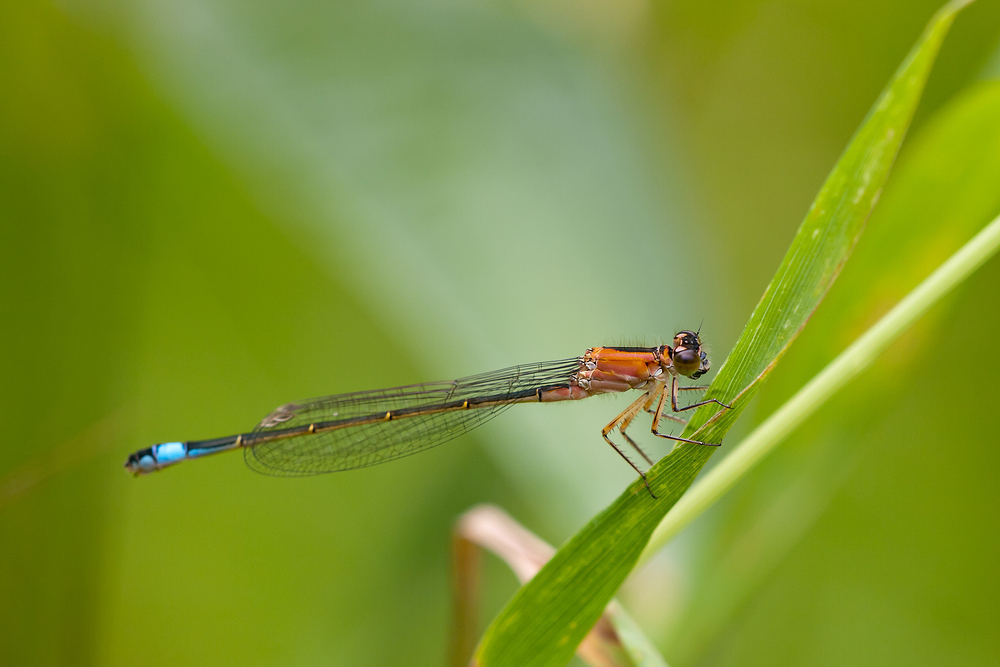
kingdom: Animalia
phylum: Arthropoda
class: Insecta
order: Odonata
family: Coenagrionidae
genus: Ischnura
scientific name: Ischnura elegans
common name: Blue-tailed damselfly
